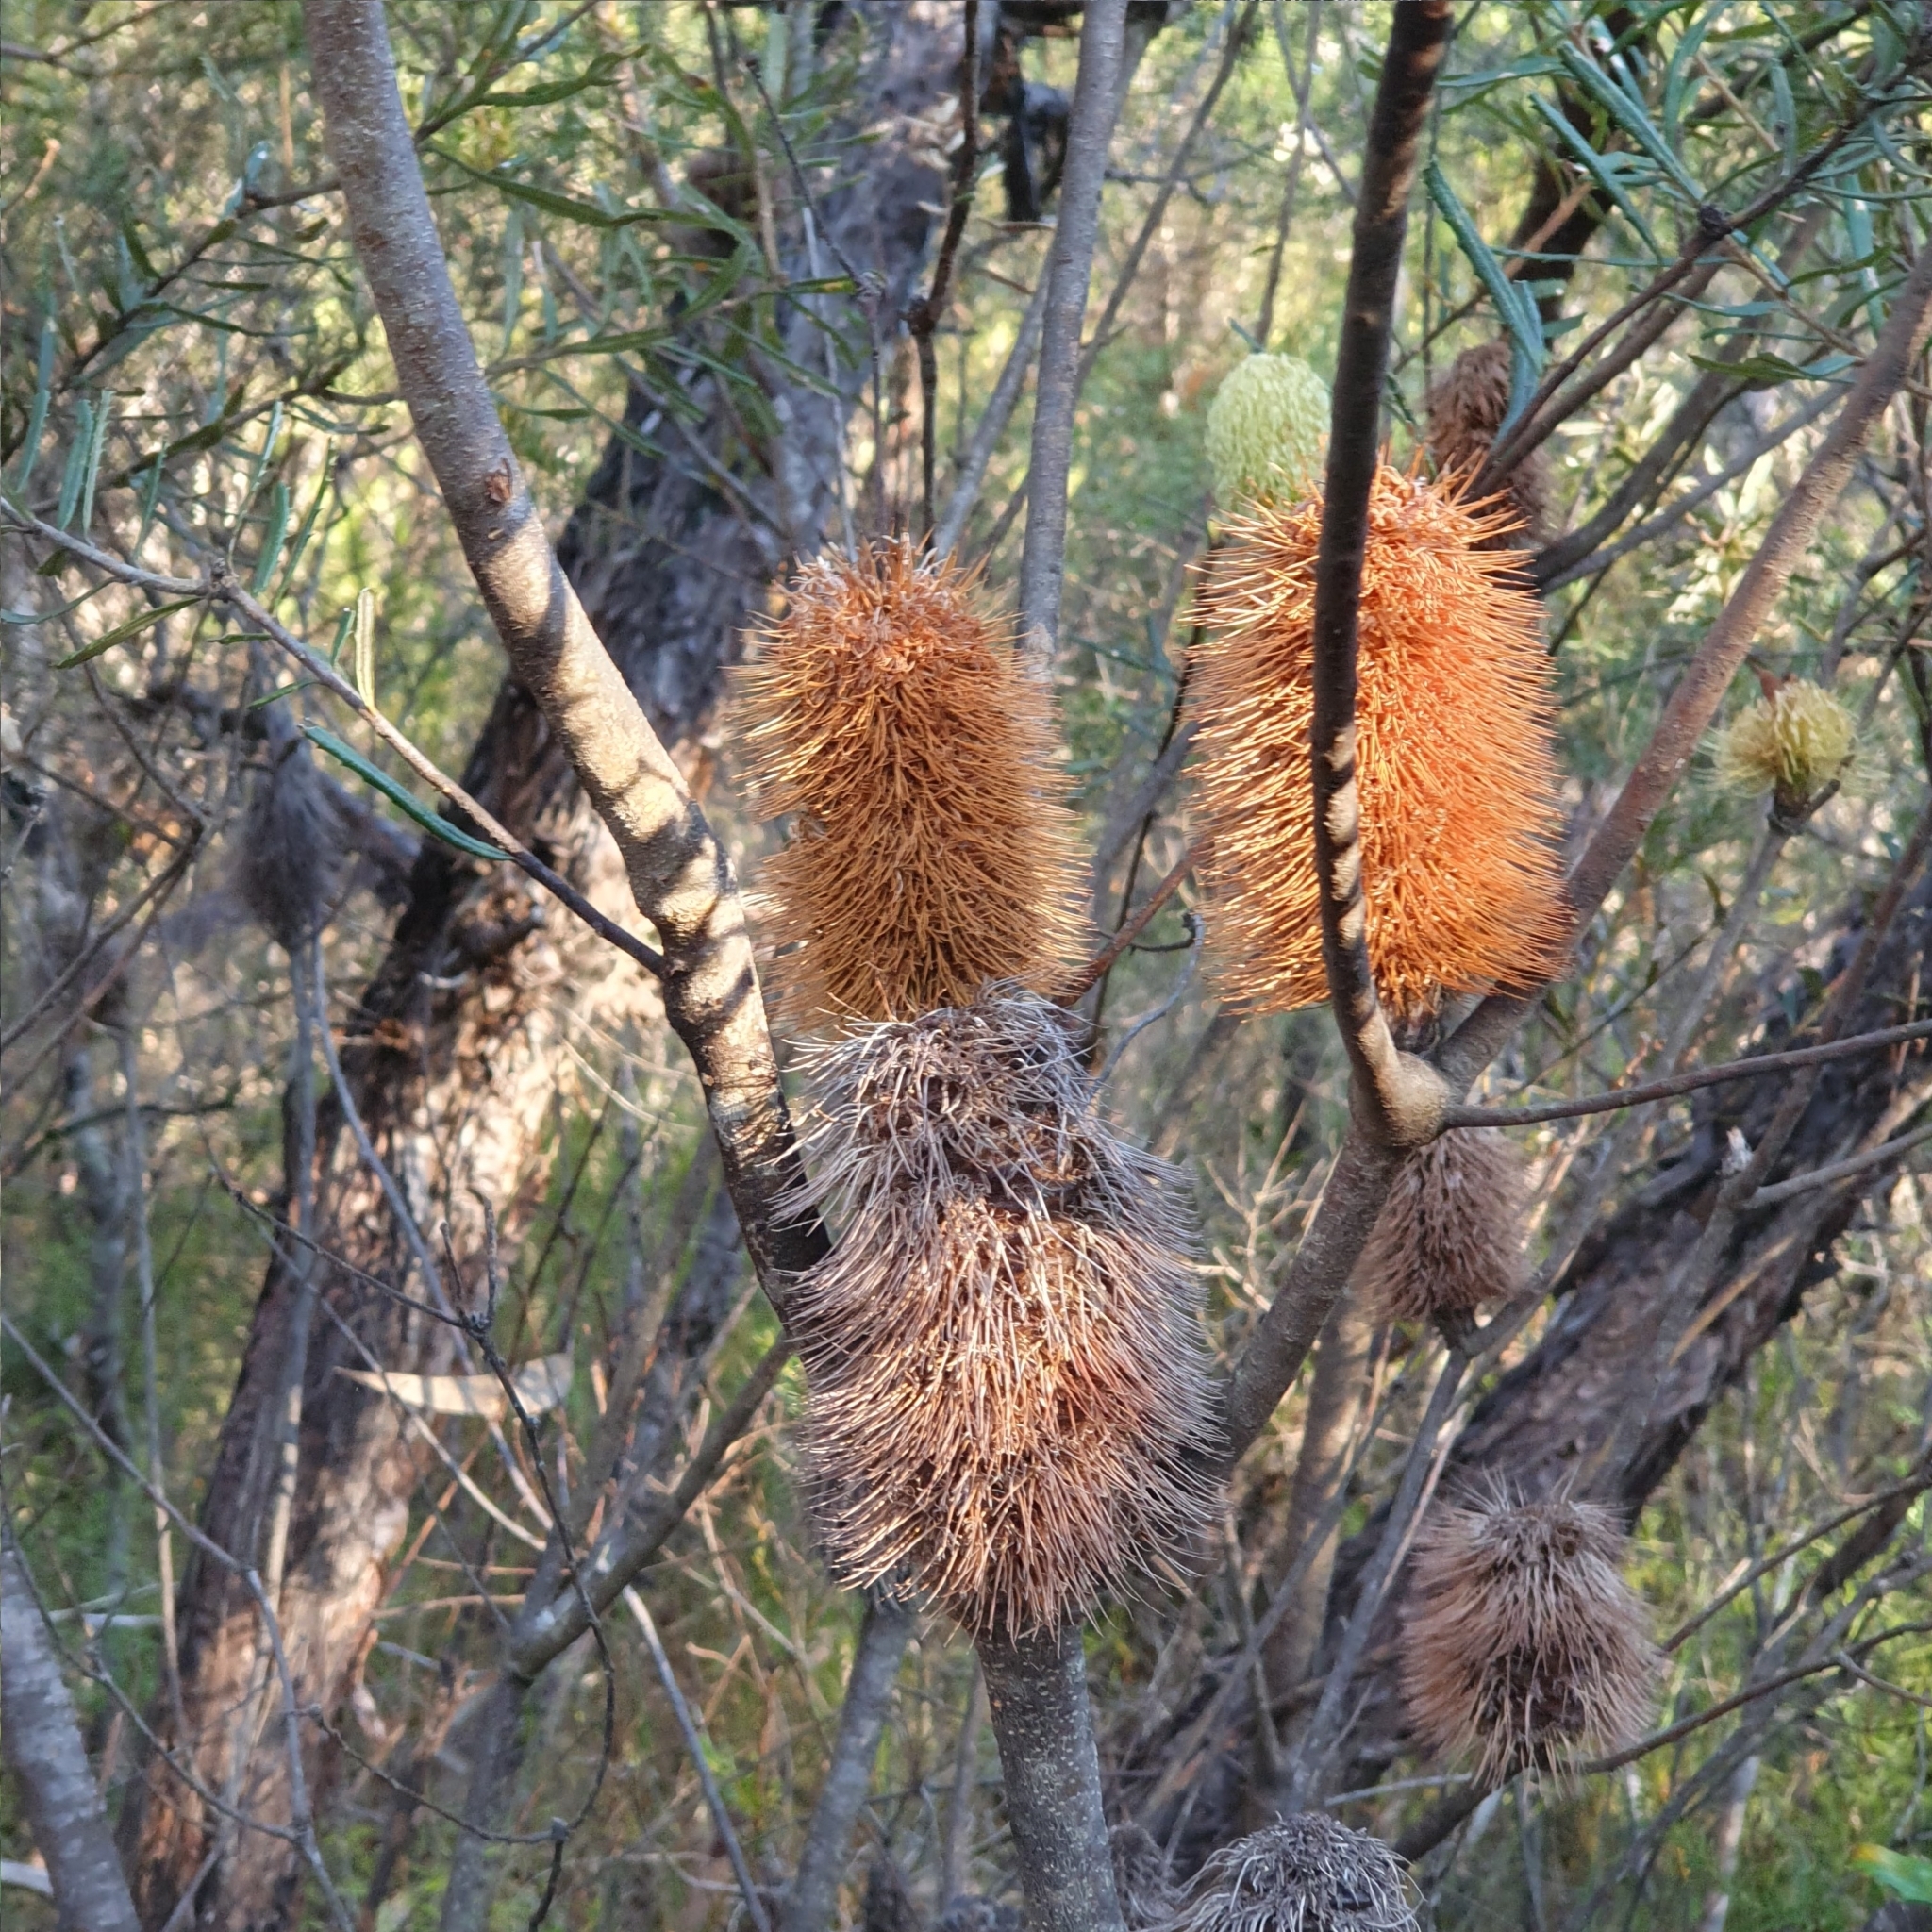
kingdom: Plantae
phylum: Tracheophyta
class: Magnoliopsida
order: Proteales
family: Proteaceae
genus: Banksia
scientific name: Banksia marginata
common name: Silver banksia
